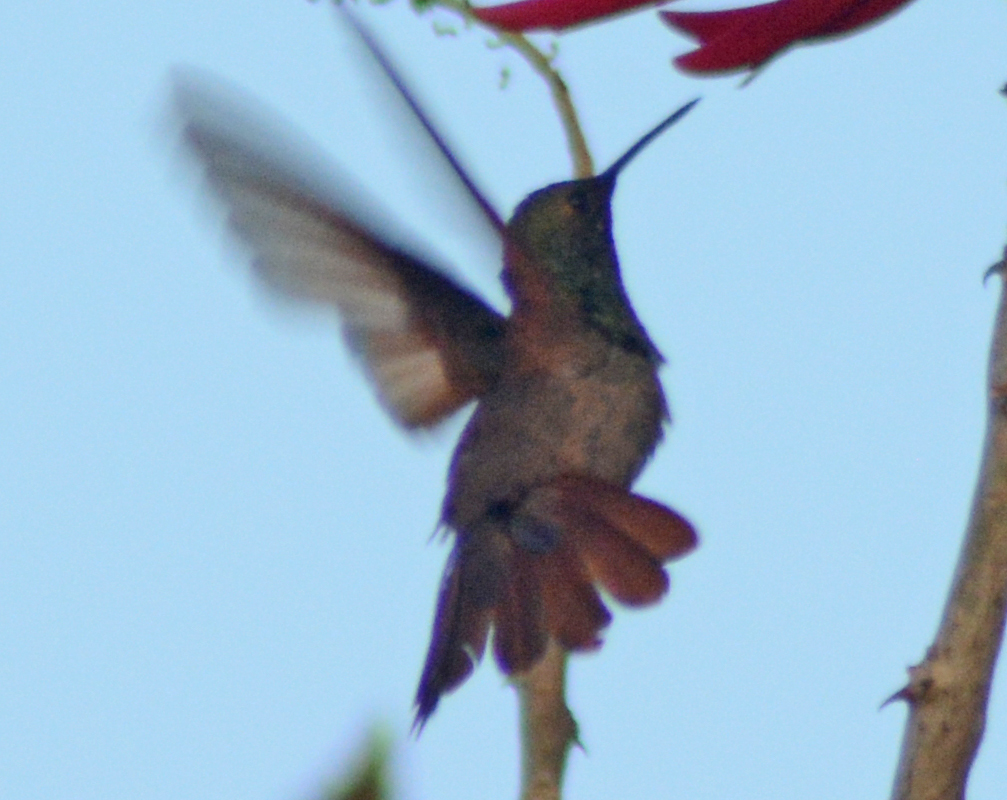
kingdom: Animalia
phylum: Chordata
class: Aves
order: Apodiformes
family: Trochilidae
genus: Saucerottia
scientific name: Saucerottia beryllina
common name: Berylline hummingbird
